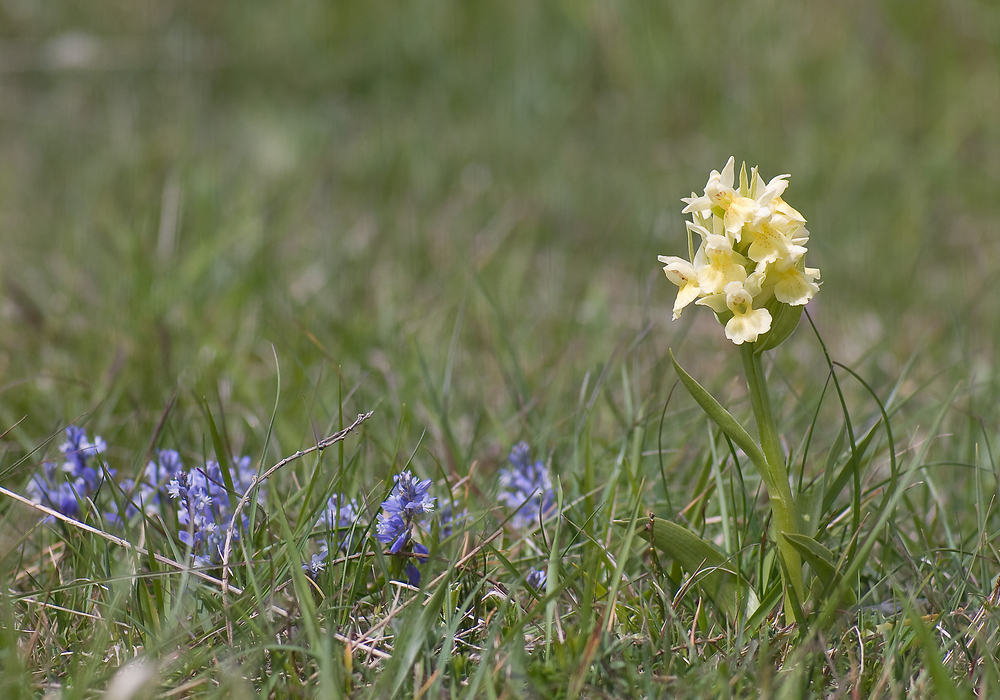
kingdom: Plantae
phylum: Tracheophyta
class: Liliopsida
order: Asparagales
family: Orchidaceae
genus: Dactylorhiza
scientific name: Dactylorhiza sambucina
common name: Elder-flowered orchid
